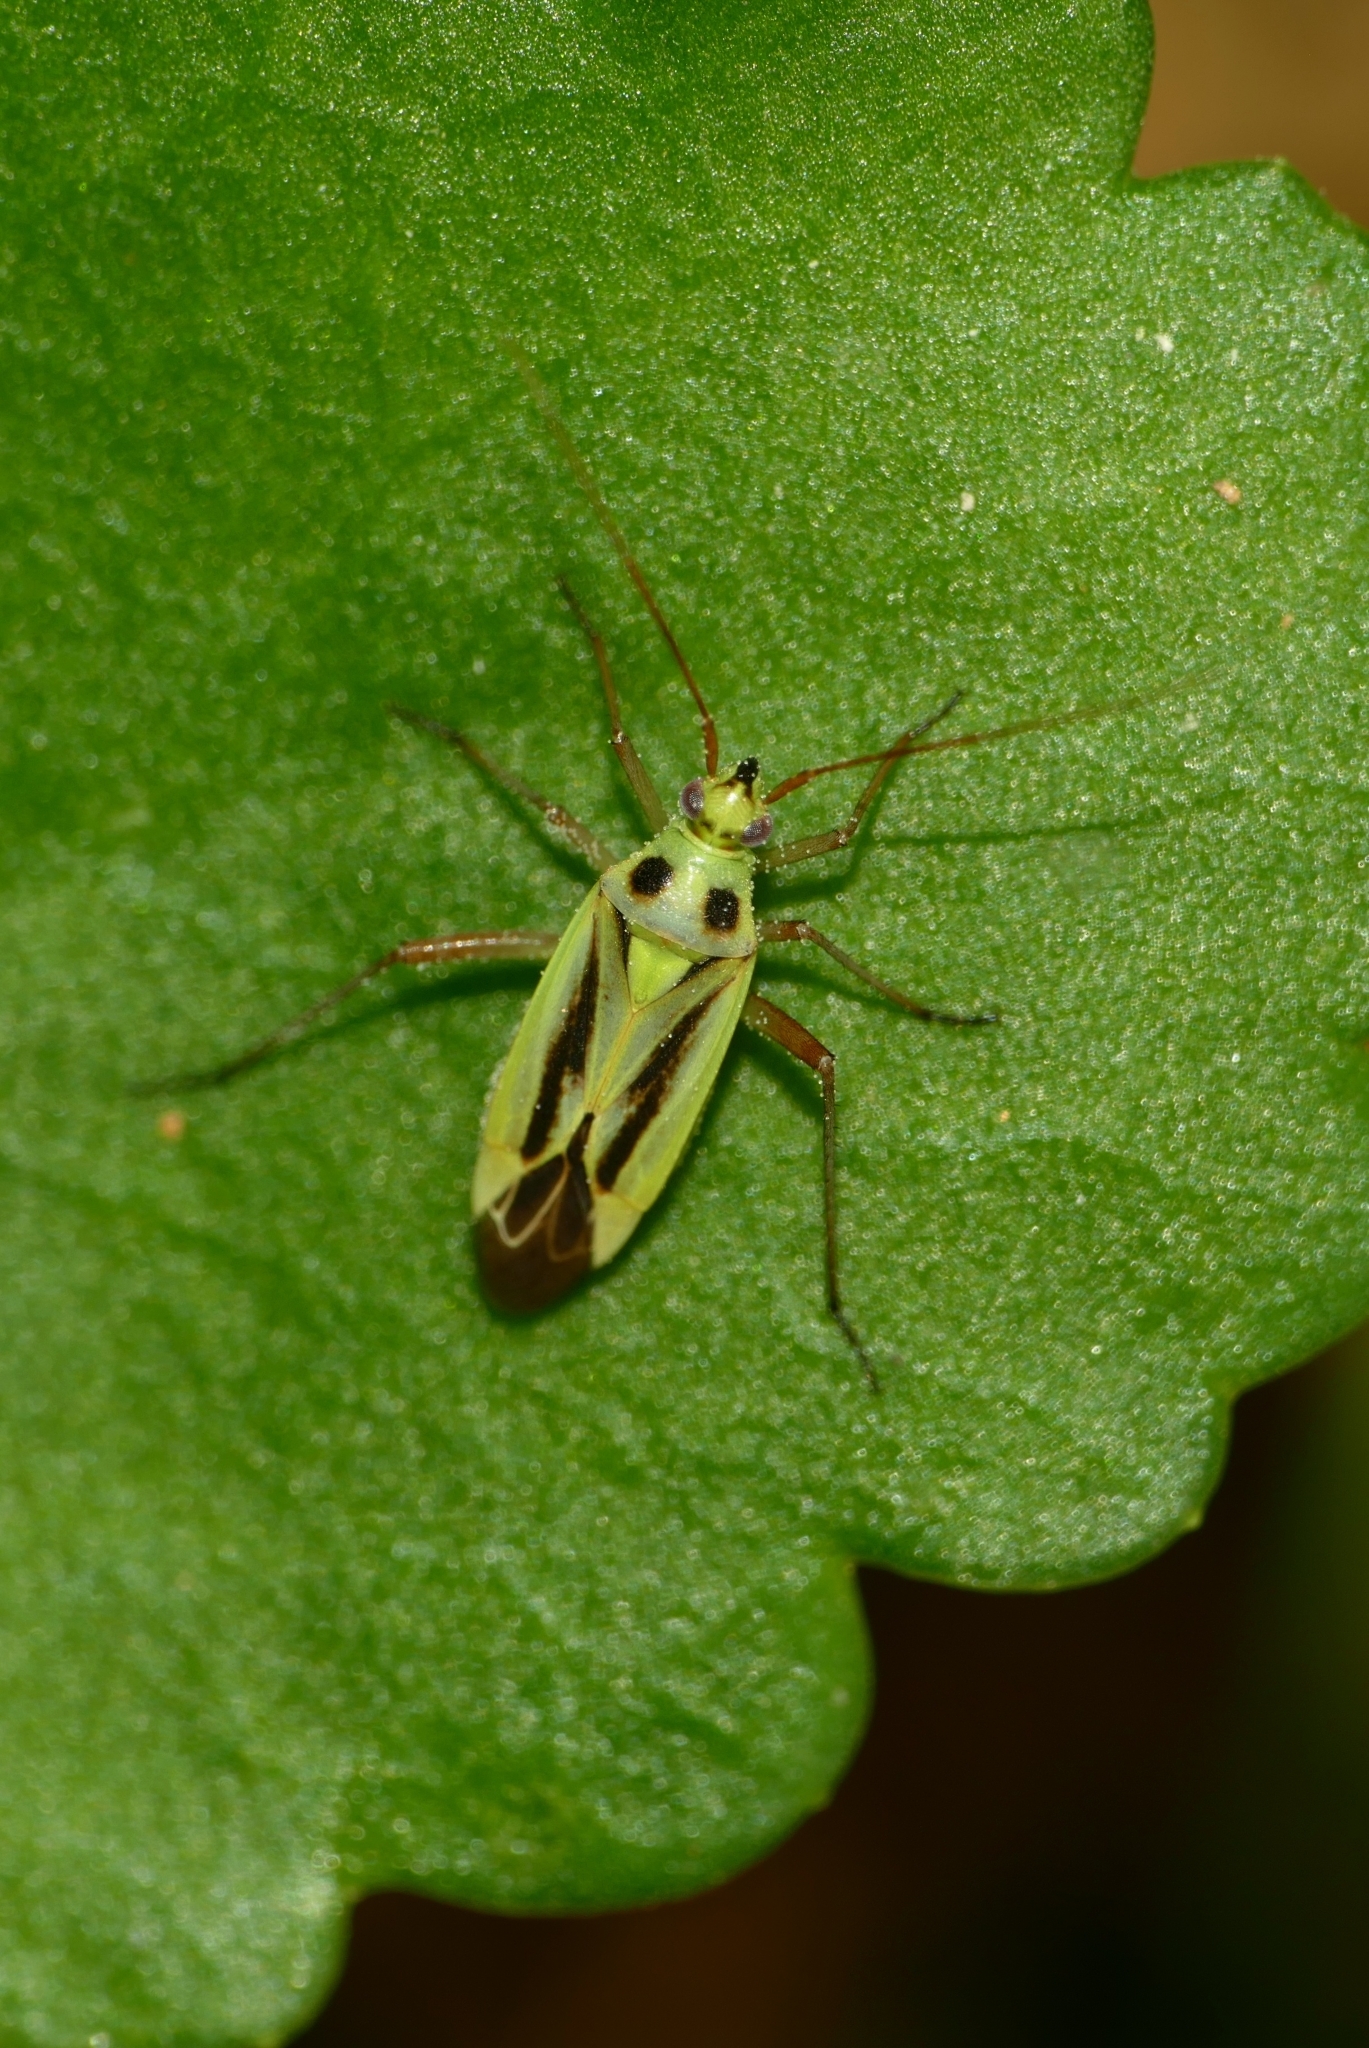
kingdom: Animalia
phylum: Arthropoda
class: Insecta
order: Hemiptera
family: Miridae
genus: Stenotus
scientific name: Stenotus binotatus
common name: Plant bug
